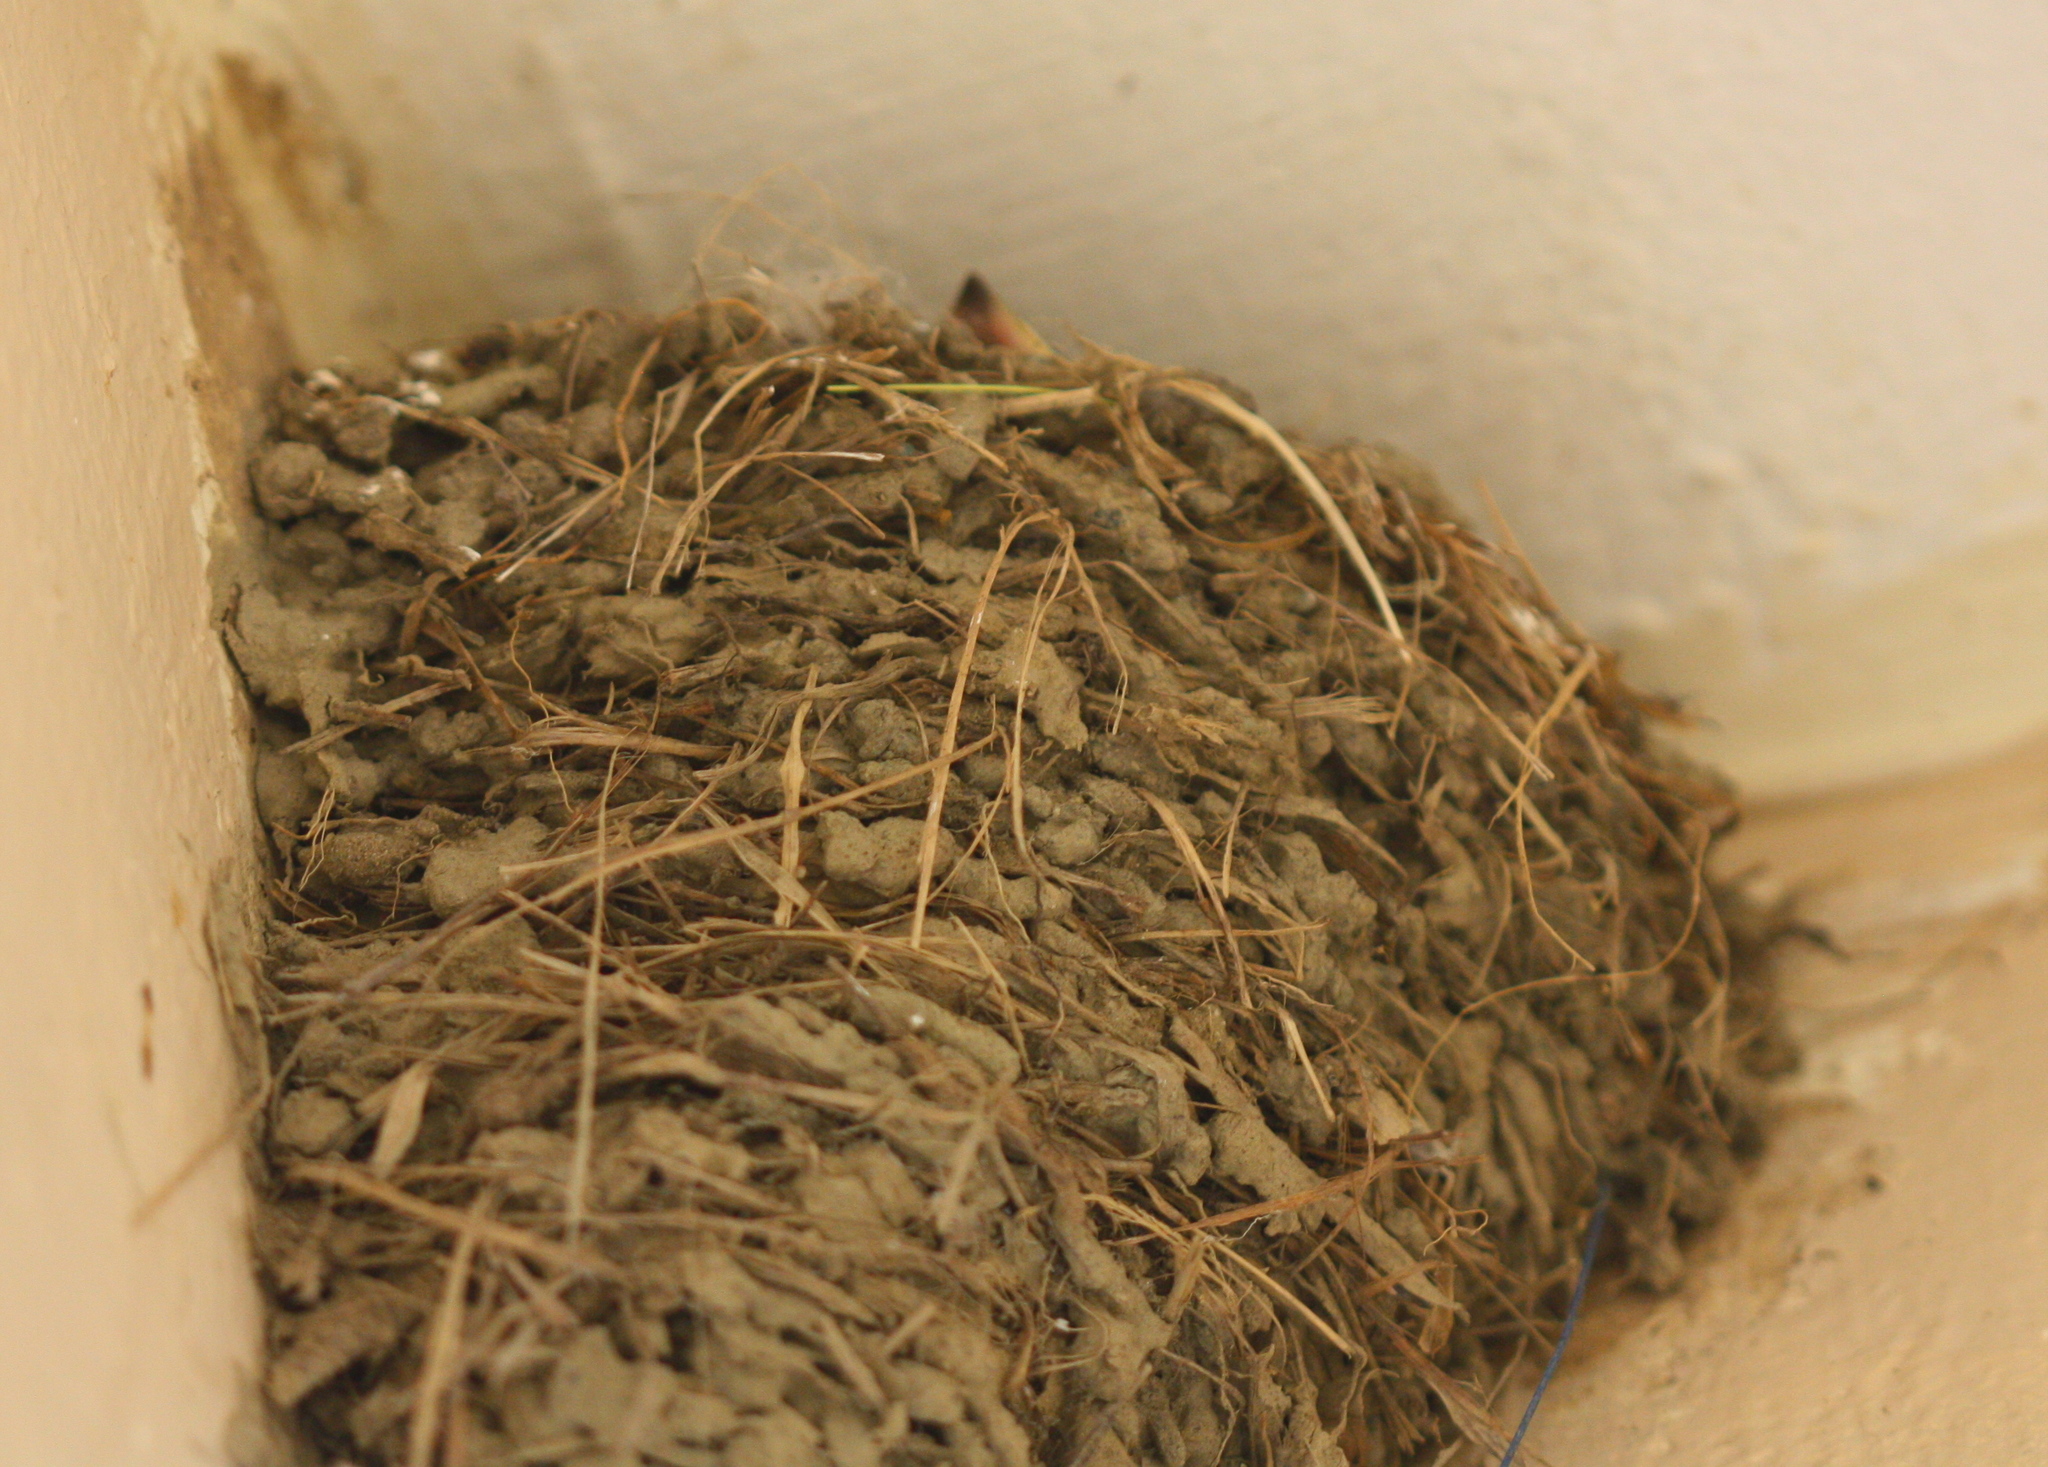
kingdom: Animalia
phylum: Chordata
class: Aves
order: Passeriformes
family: Hirundinidae
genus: Hirundo
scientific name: Hirundo tahitica
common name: Pacific swallow
